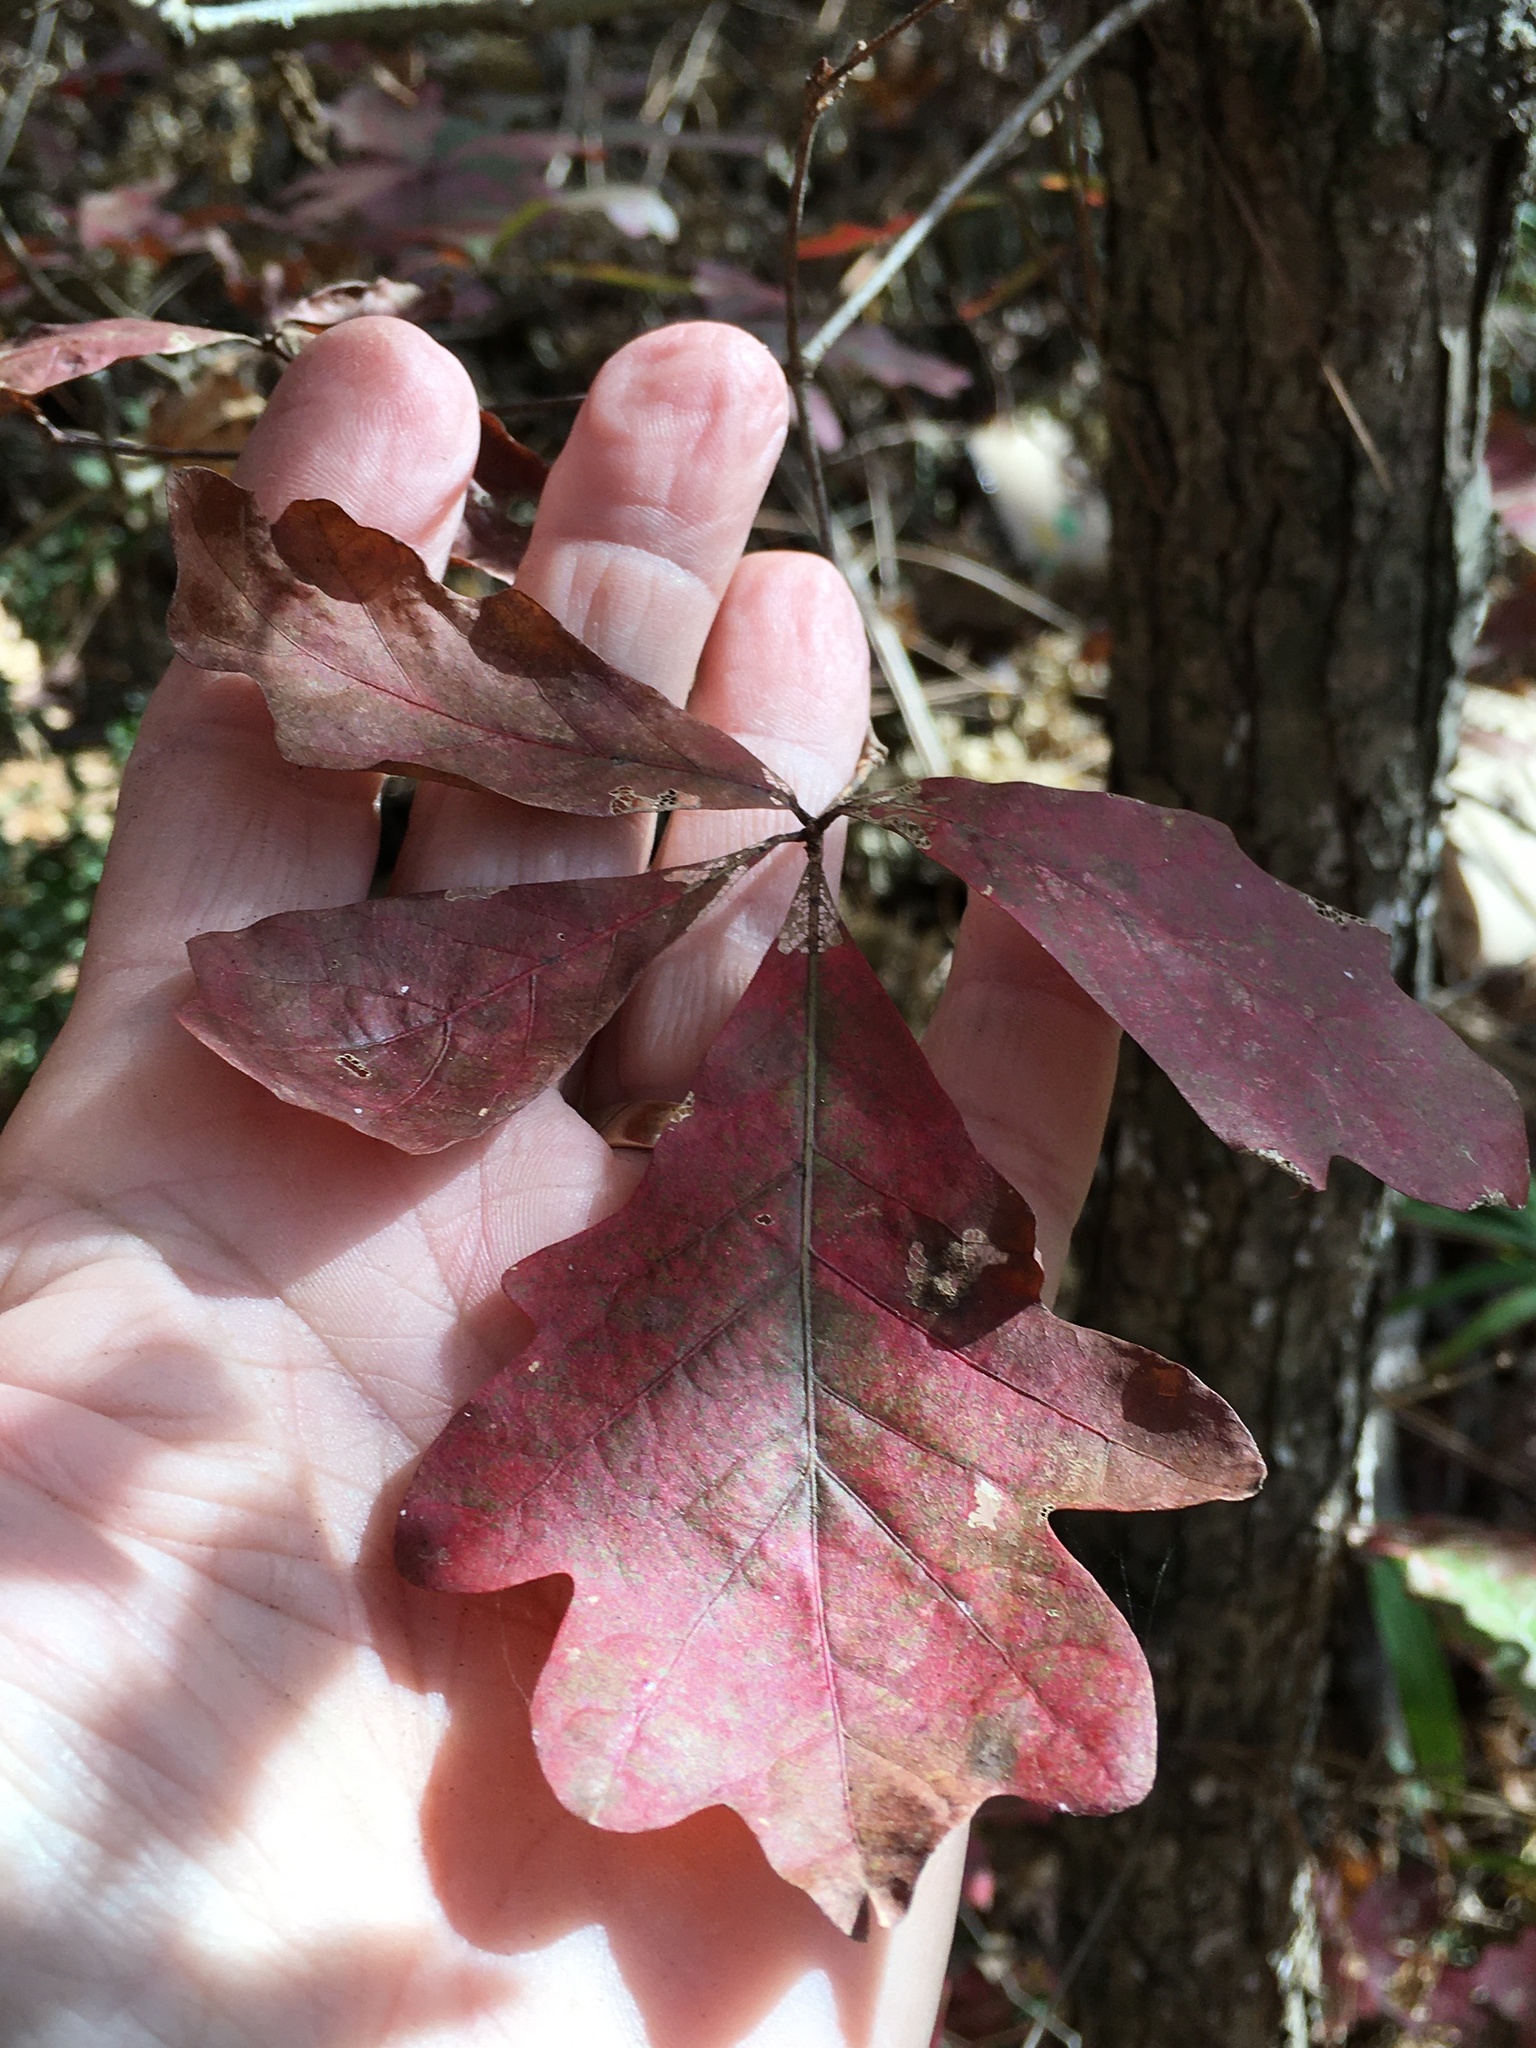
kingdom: Plantae
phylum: Tracheophyta
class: Magnoliopsida
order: Fagales
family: Fagaceae
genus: Quercus
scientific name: Quercus alba
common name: White oak
